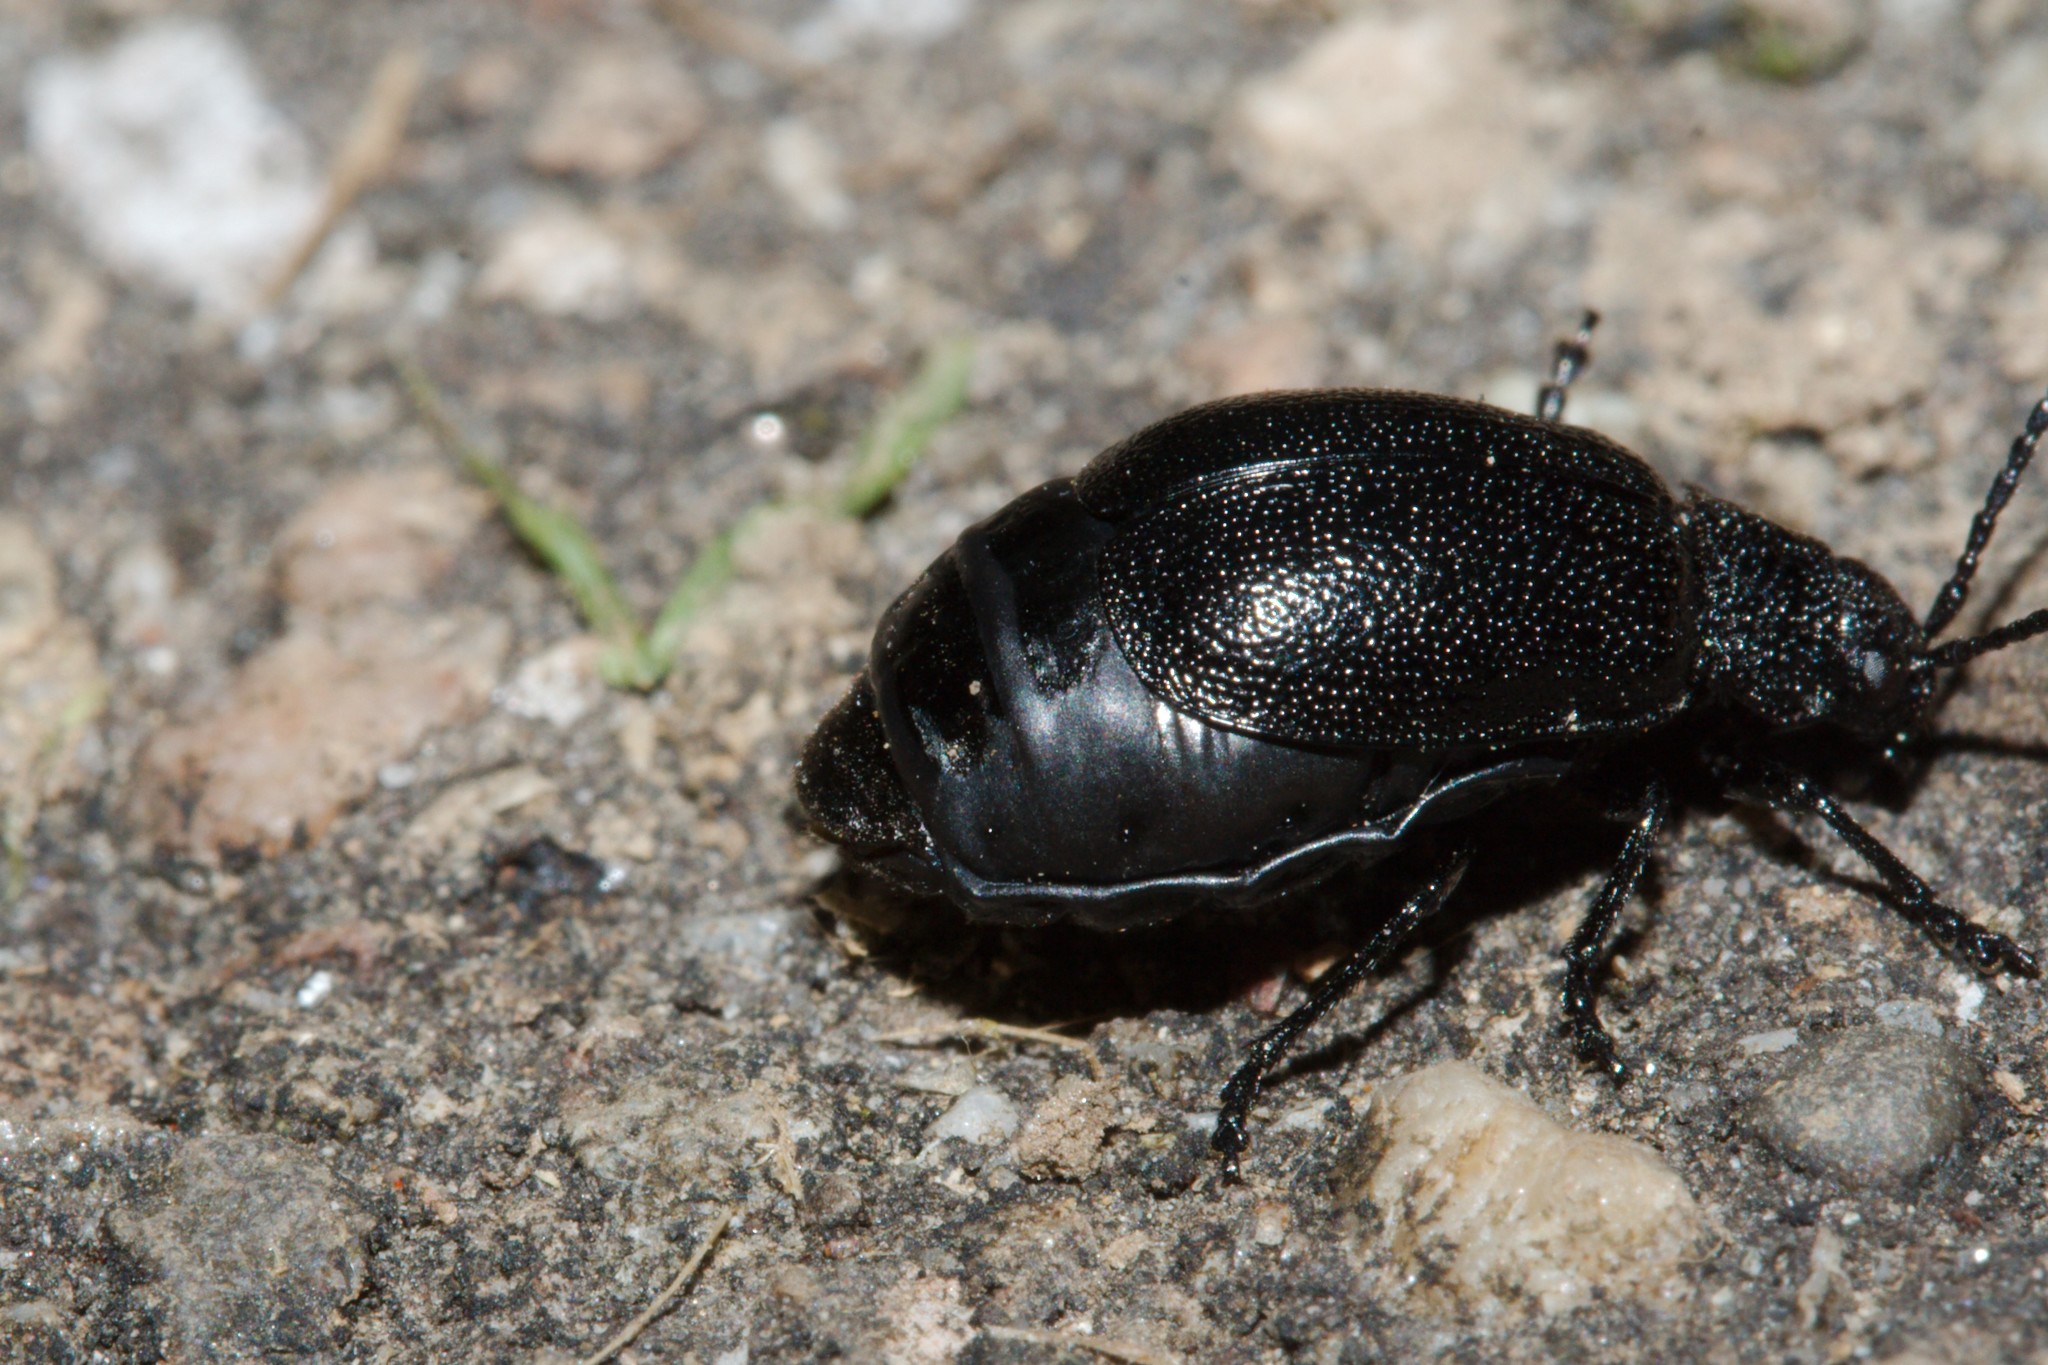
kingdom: Animalia
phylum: Arthropoda
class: Insecta
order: Coleoptera
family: Chrysomelidae
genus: Galeruca
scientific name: Galeruca tanaceti
